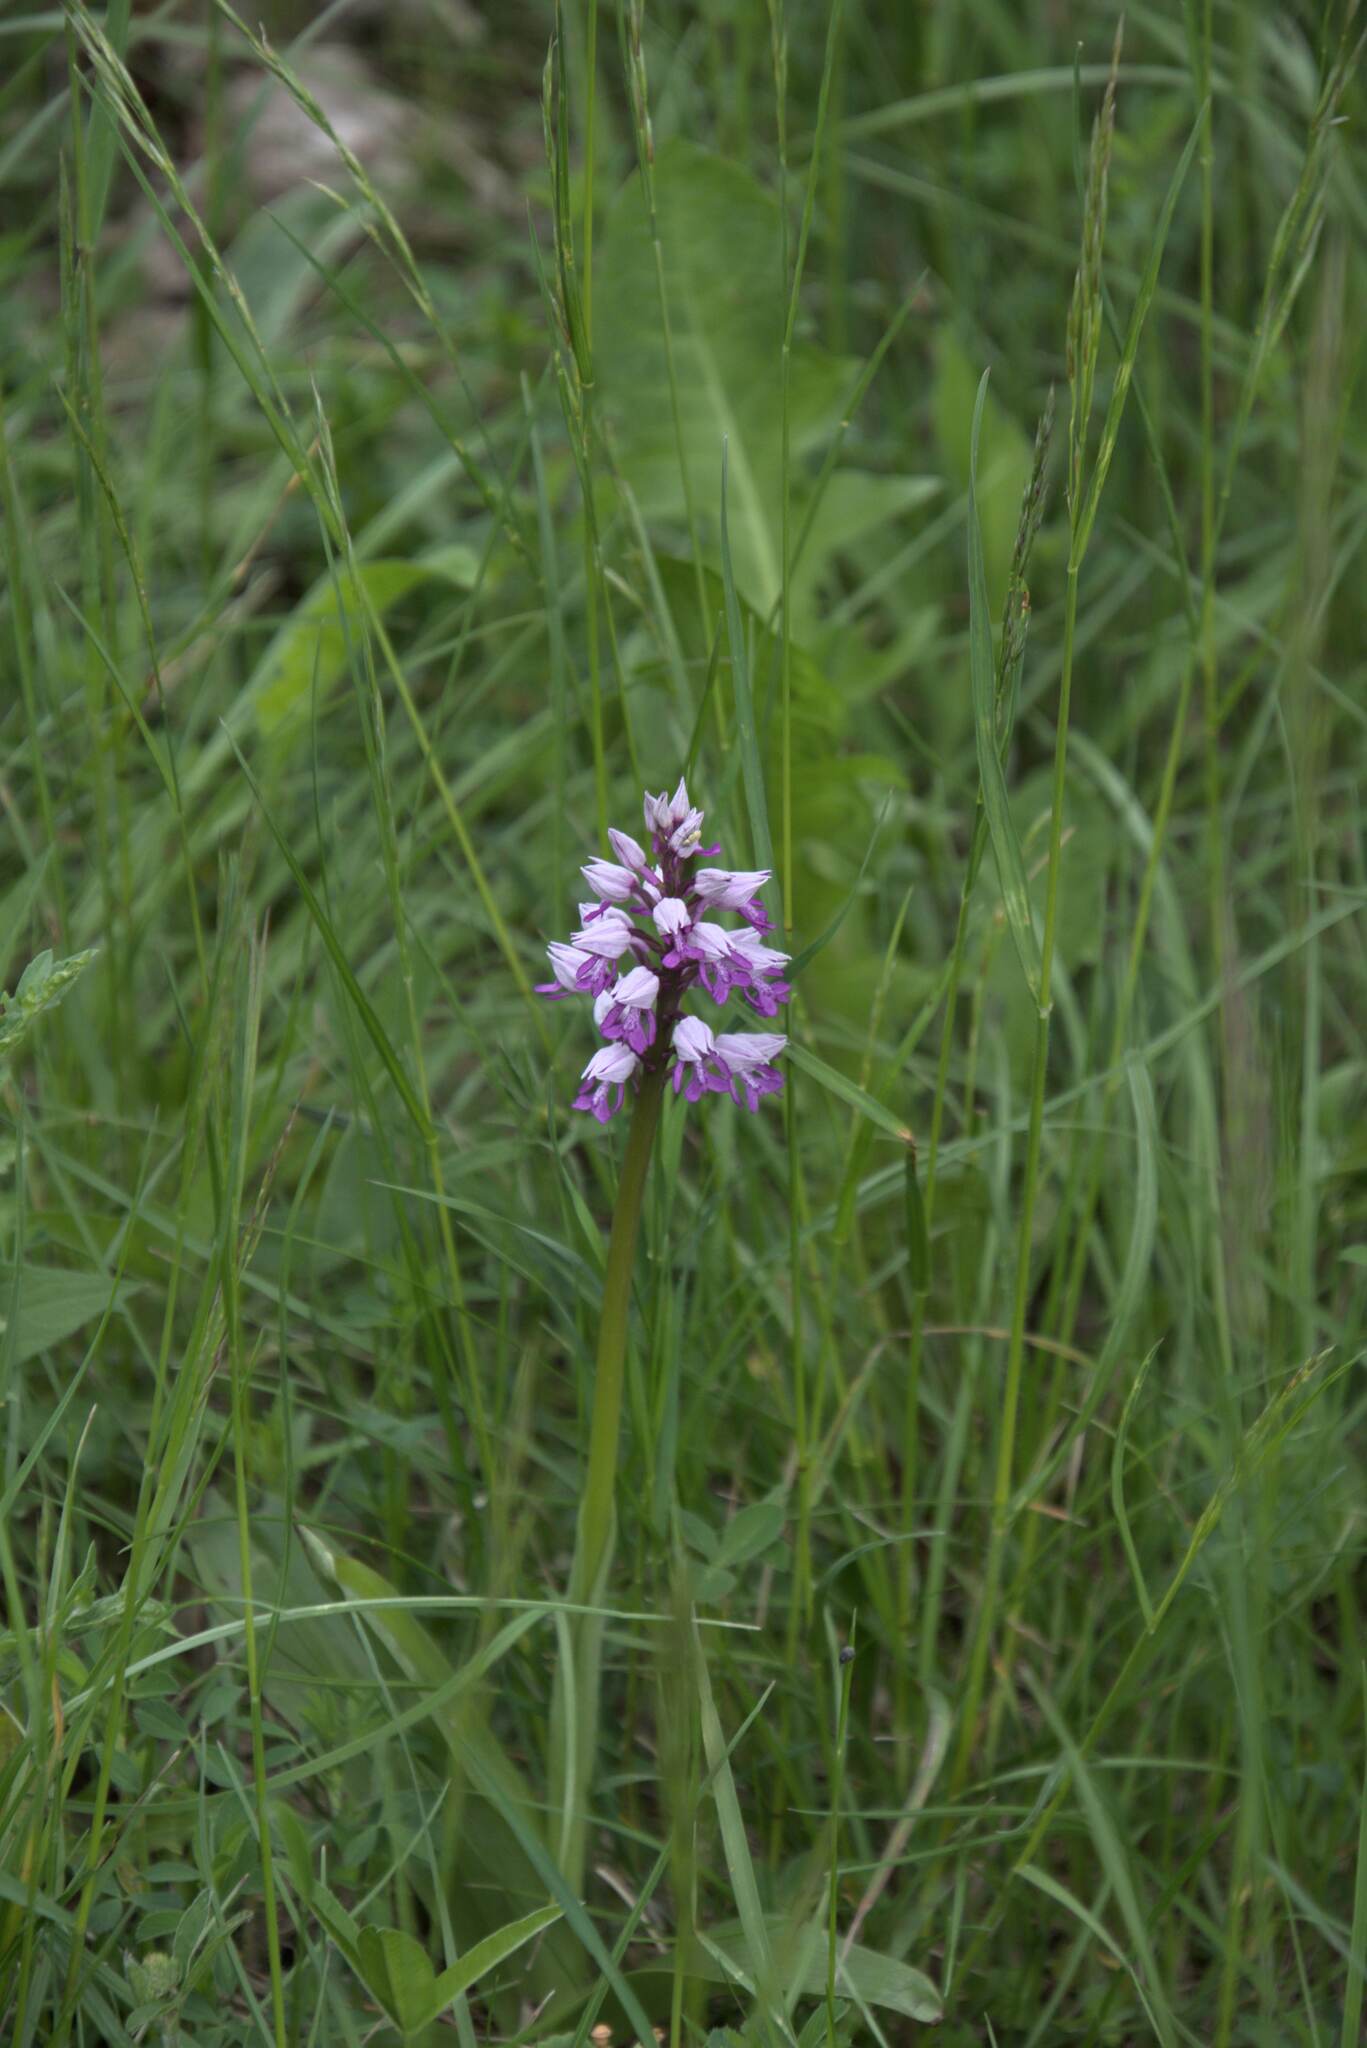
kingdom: Plantae
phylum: Tracheophyta
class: Liliopsida
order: Asparagales
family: Orchidaceae
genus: Orchis
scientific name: Orchis militaris
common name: Military orchid
